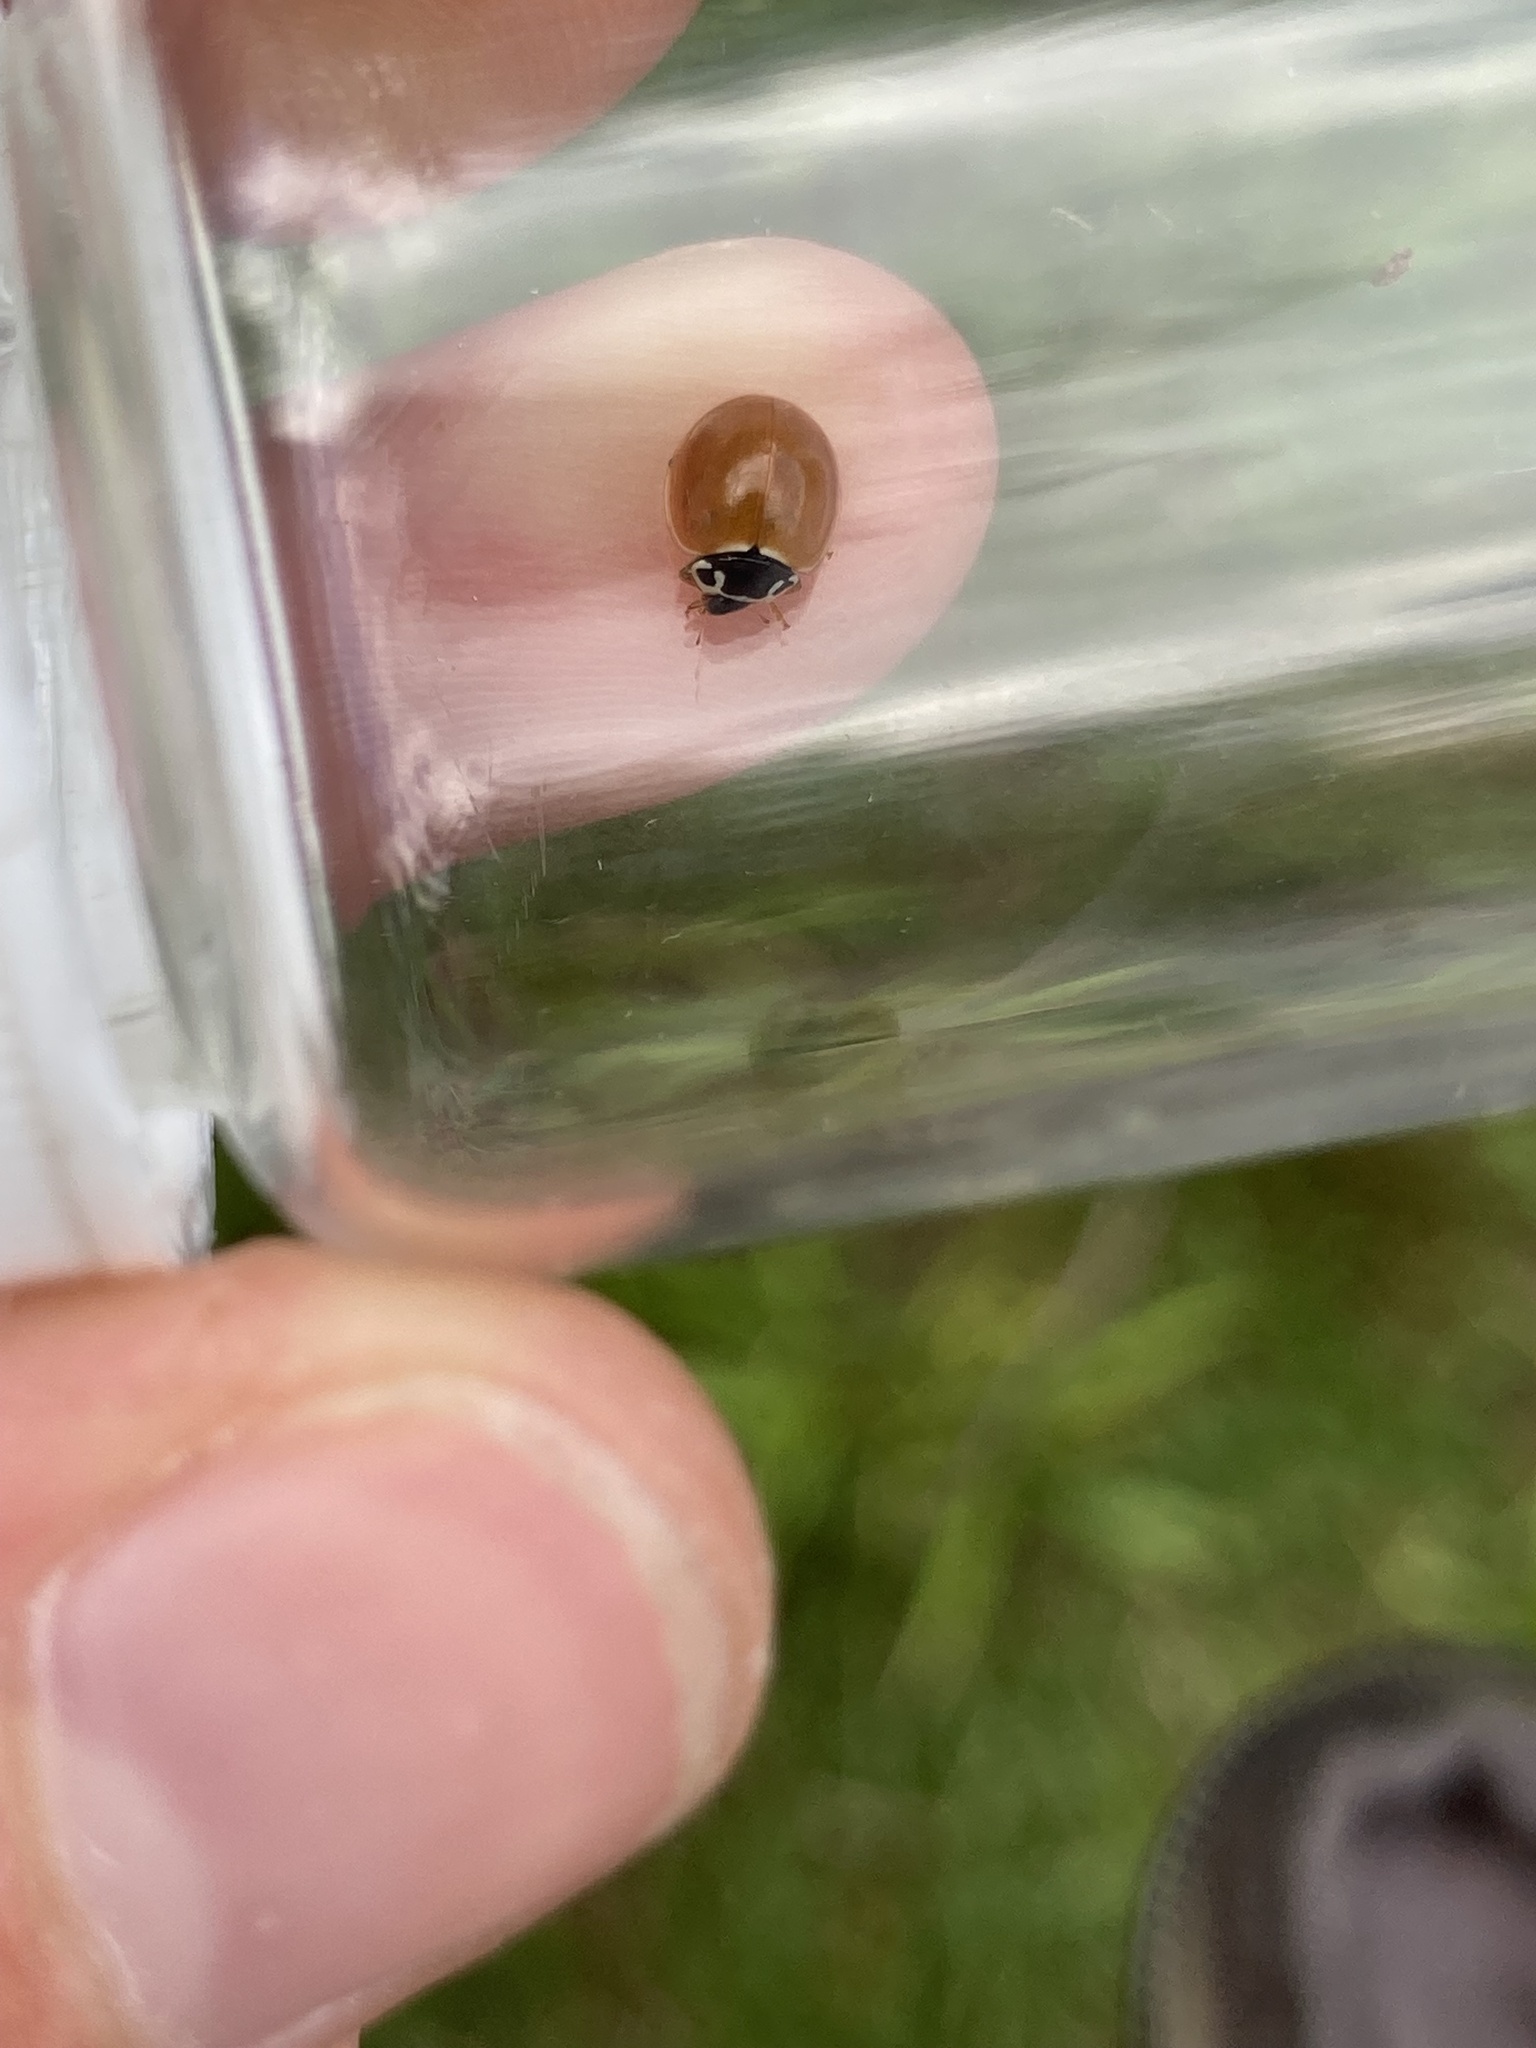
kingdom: Animalia
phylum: Arthropoda
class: Insecta
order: Coleoptera
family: Coccinellidae
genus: Cycloneda
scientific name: Cycloneda munda
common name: Polished lady beetle
